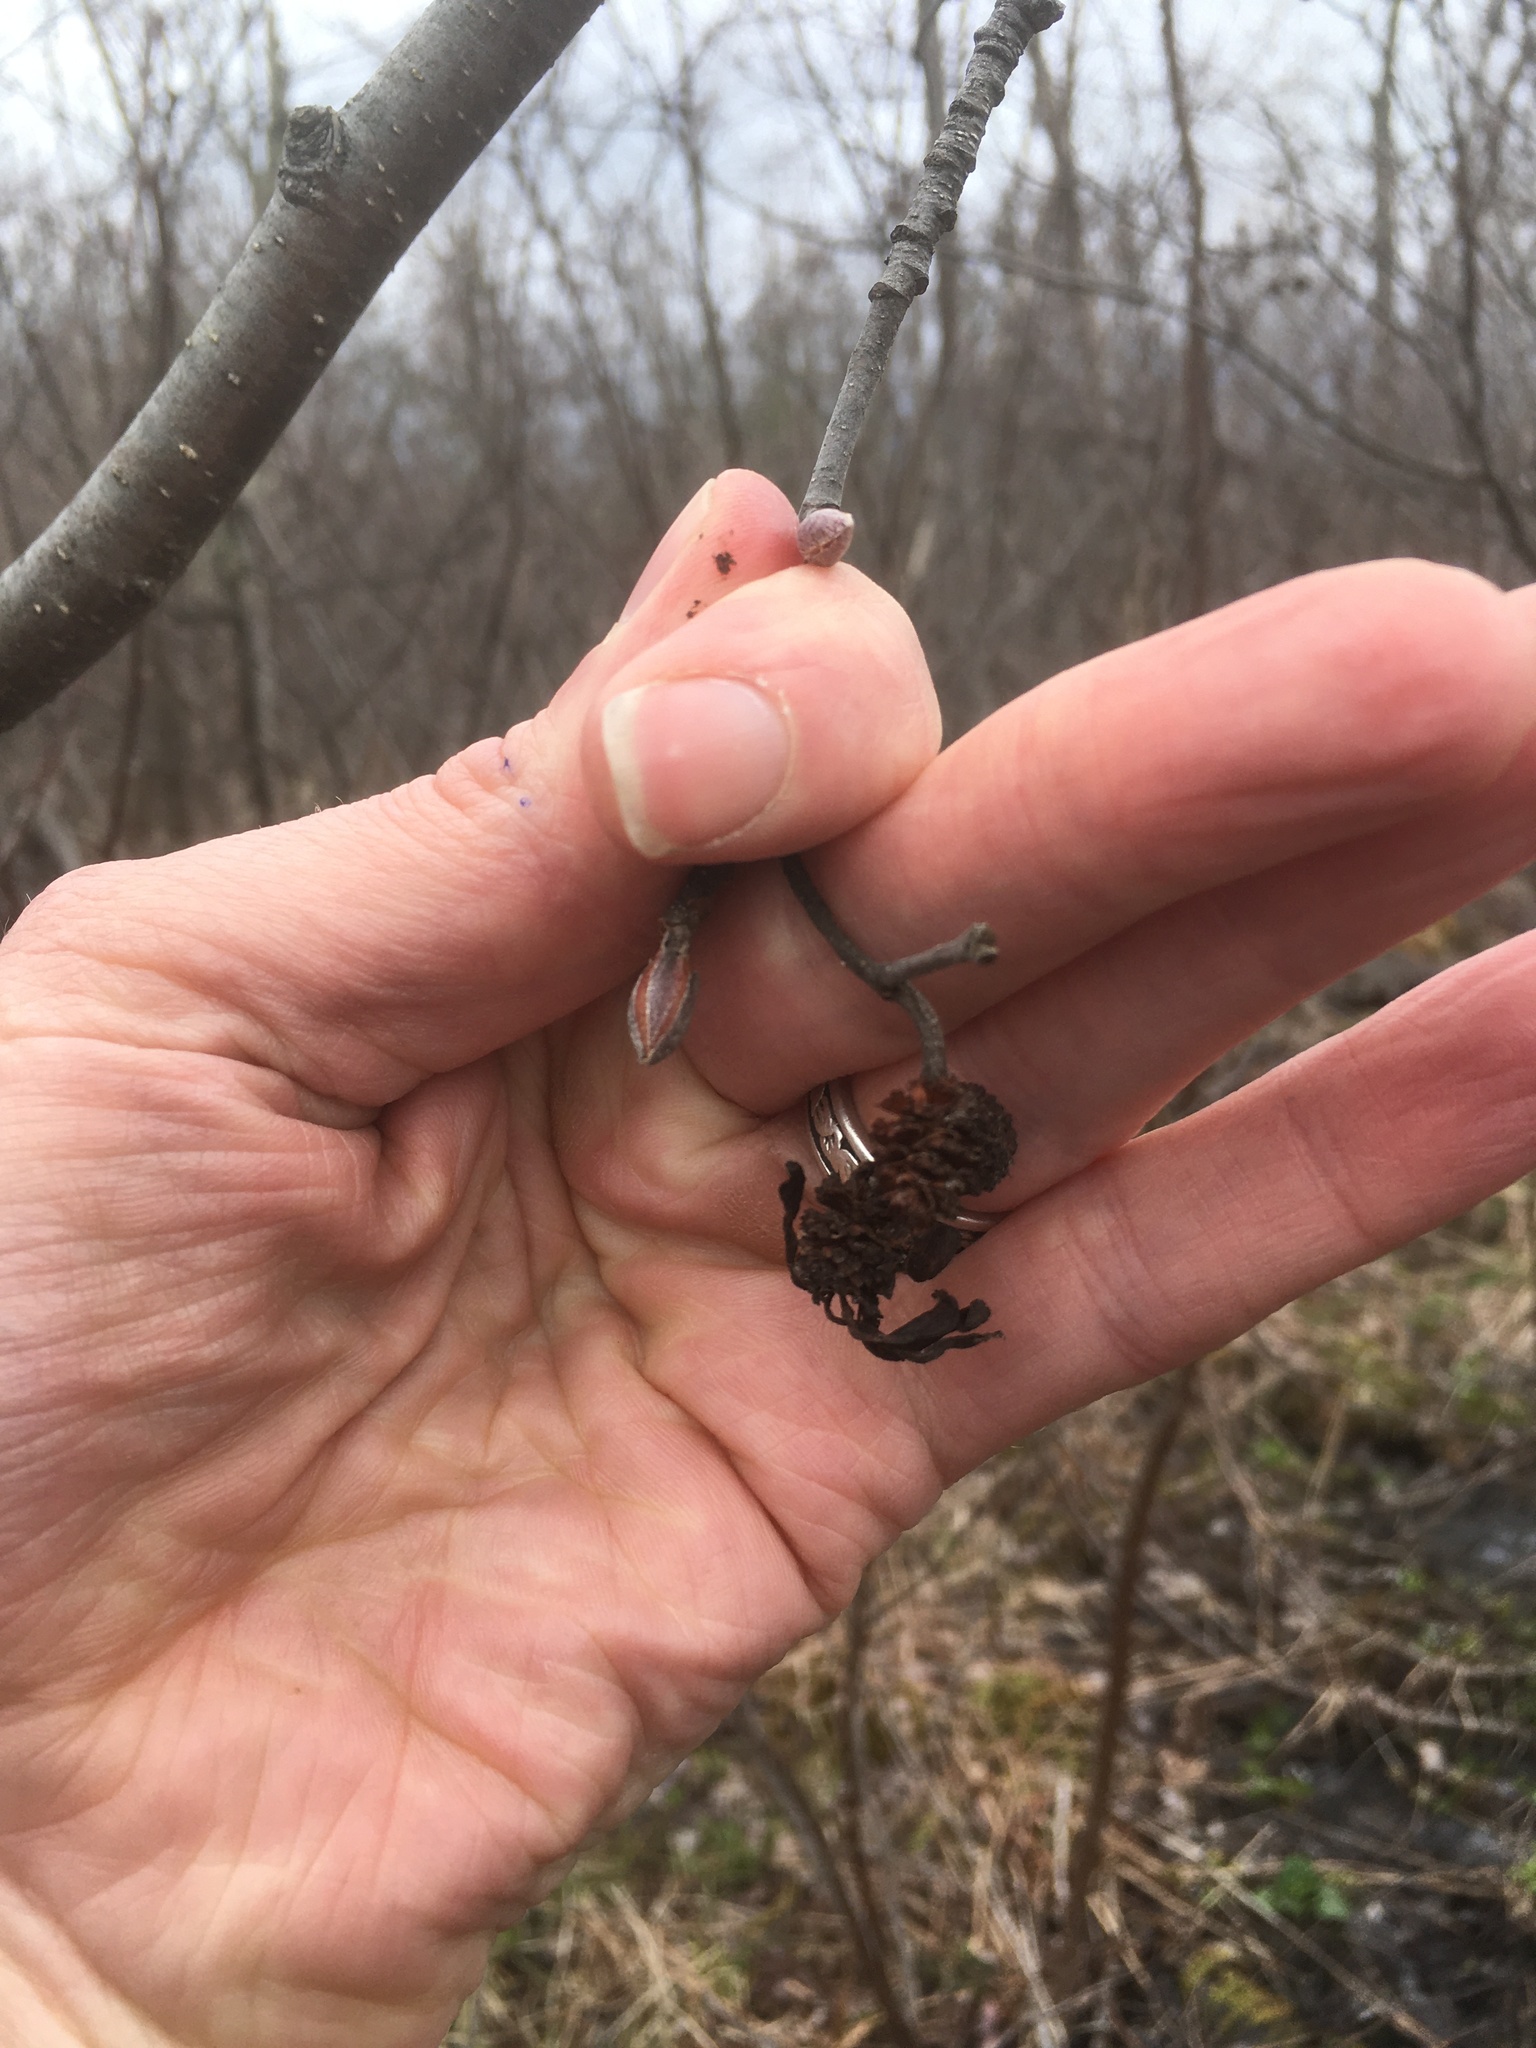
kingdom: Fungi
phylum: Ascomycota
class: Taphrinomycetes
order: Taphrinales
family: Taphrinaceae
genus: Taphrina
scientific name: Taphrina robinsoniana
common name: Eastern american alder tongue gall fungus
